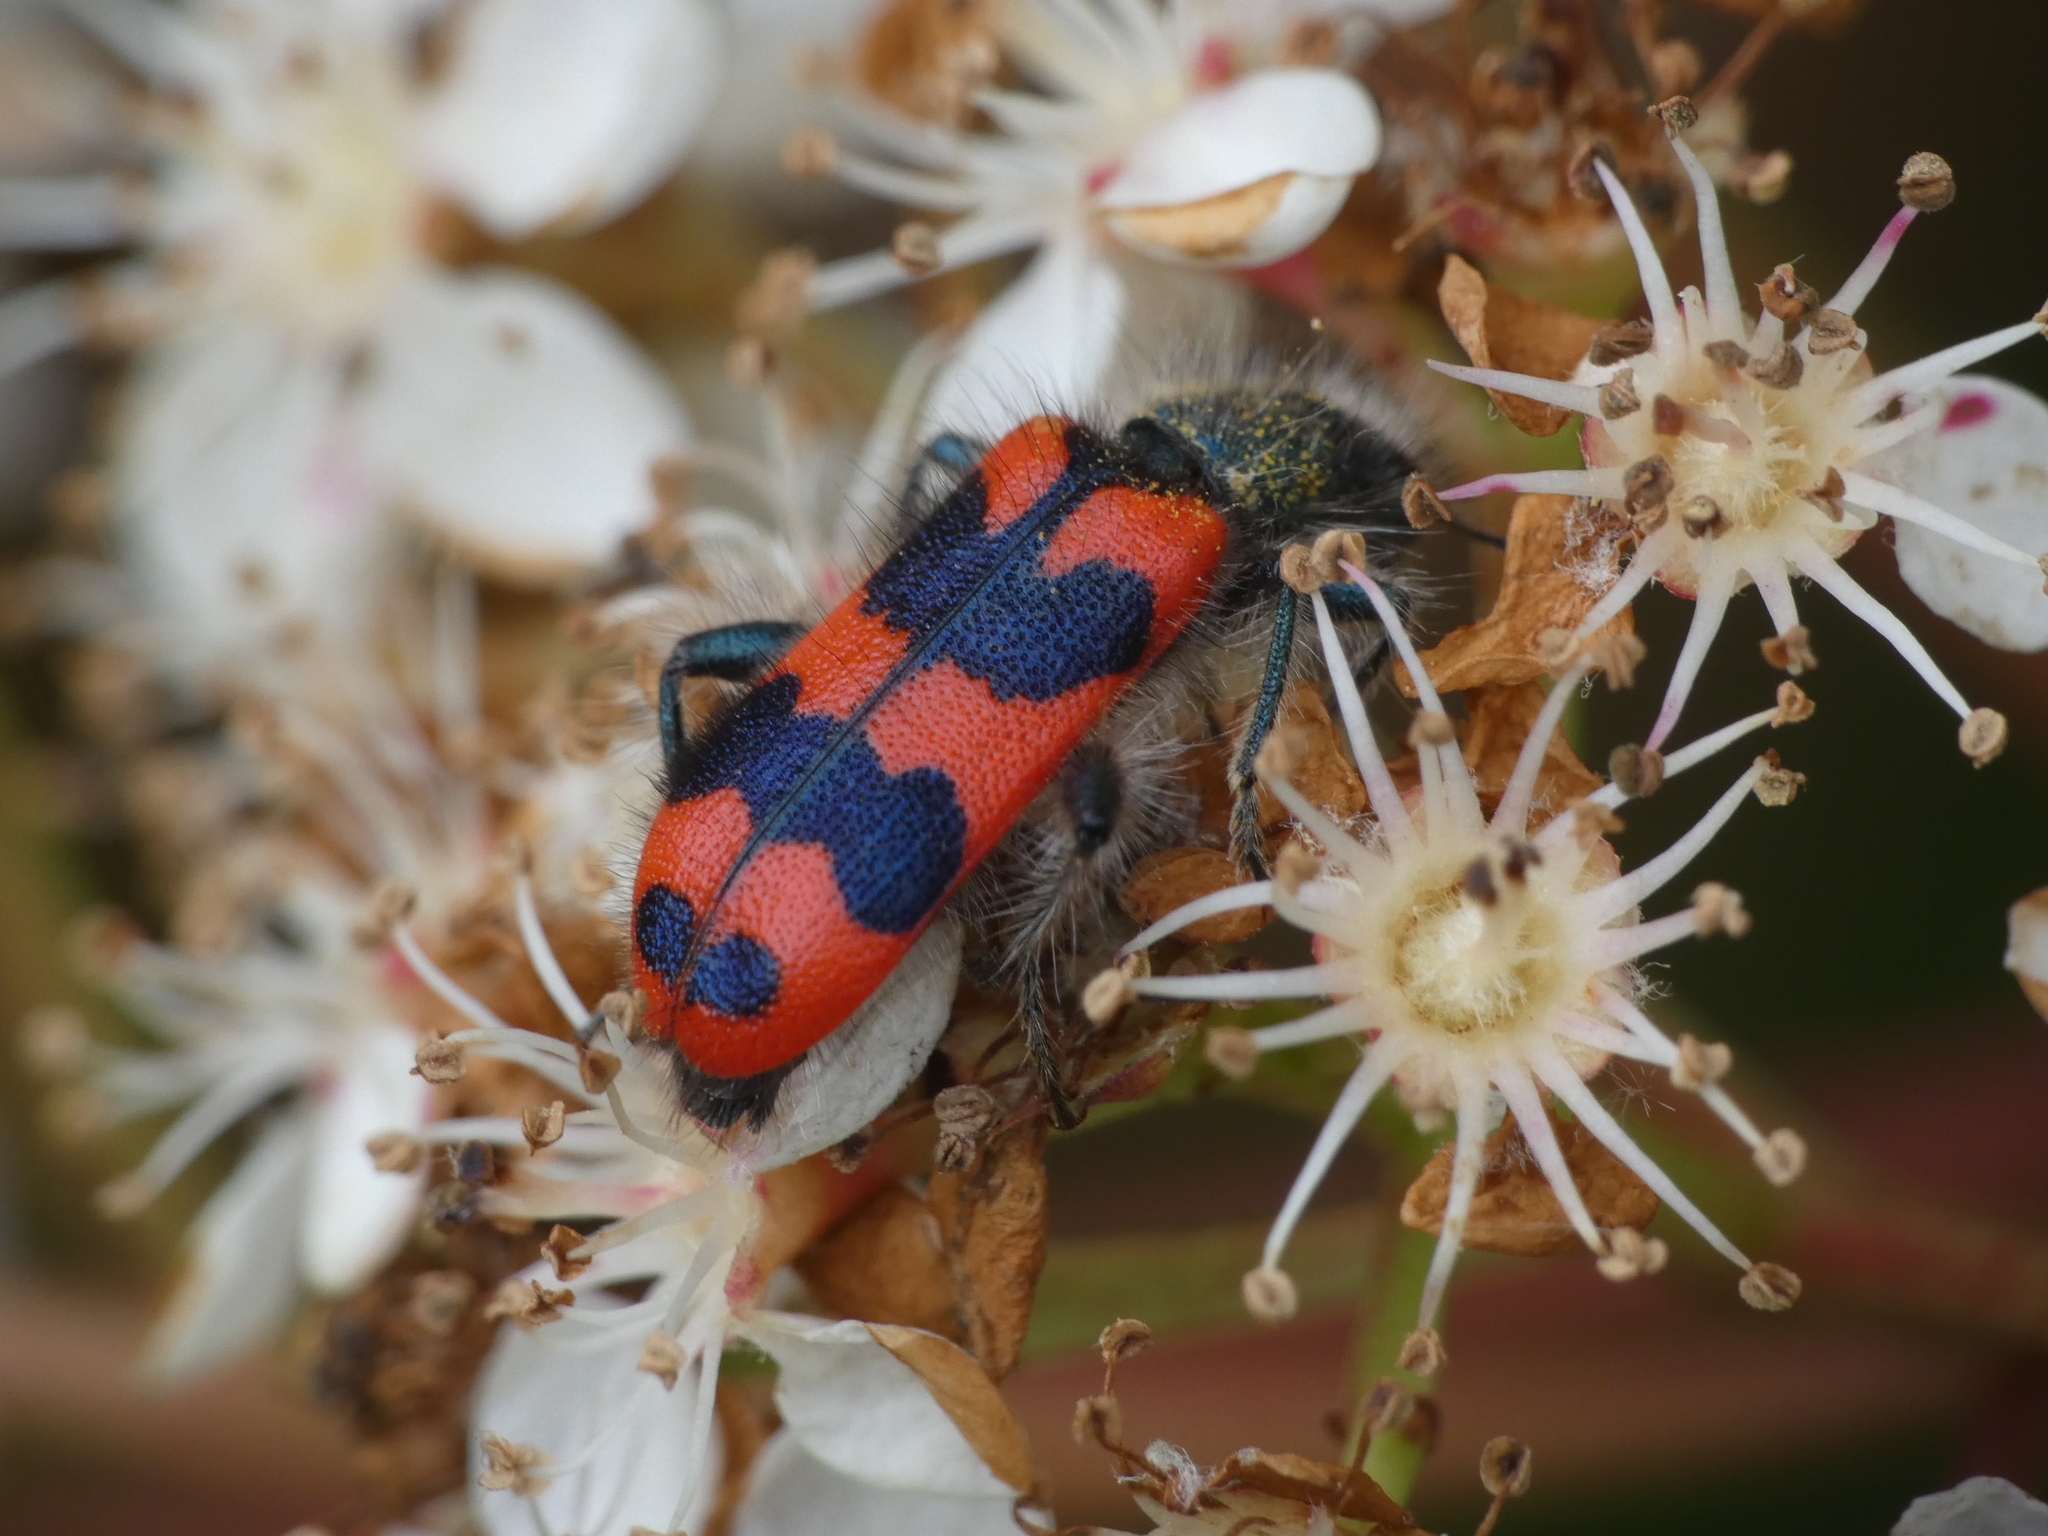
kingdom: Animalia
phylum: Arthropoda
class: Insecta
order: Coleoptera
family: Cleridae
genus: Trichodes
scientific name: Trichodes alvearius
